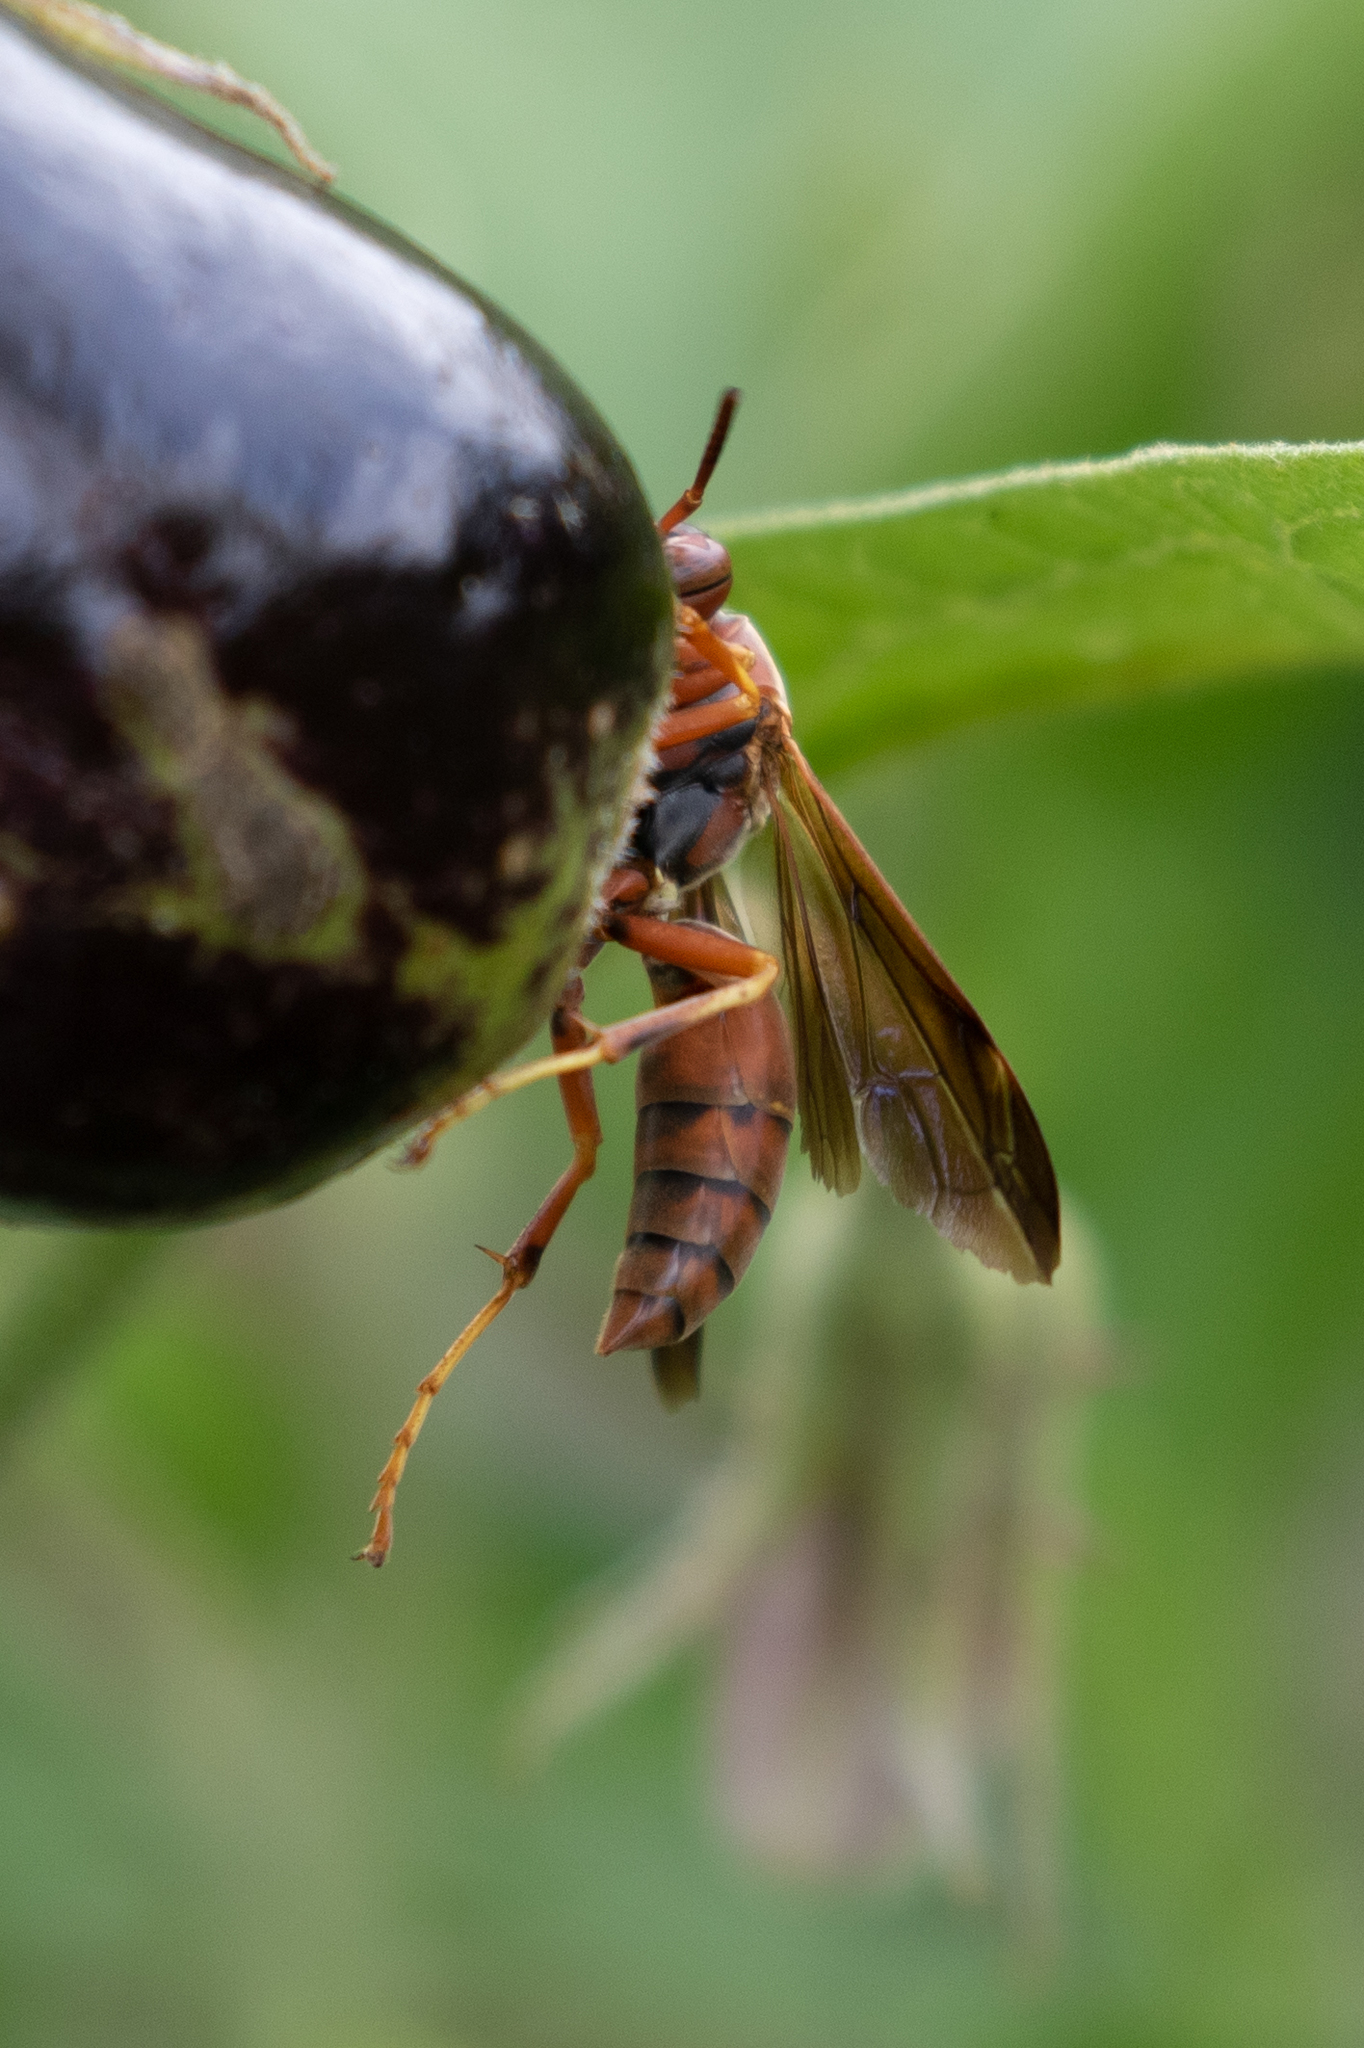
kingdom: Animalia
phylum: Arthropoda
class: Insecta
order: Hymenoptera
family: Vespidae
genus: Fuscopolistes
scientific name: Fuscopolistes
